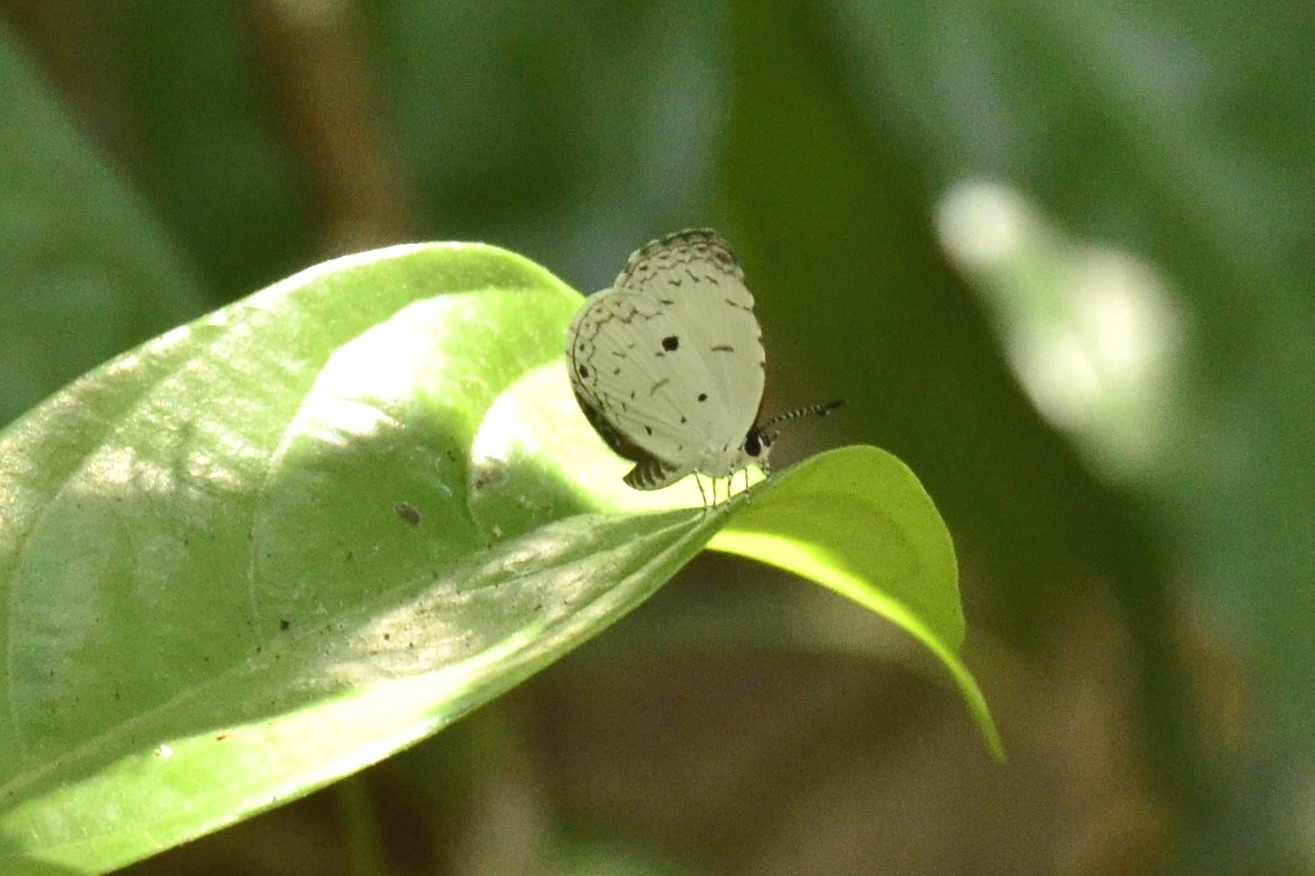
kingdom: Animalia
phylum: Arthropoda
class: Insecta
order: Lepidoptera
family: Lycaenidae
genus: Neopithecops
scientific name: Neopithecops zalmora
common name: Quaker
